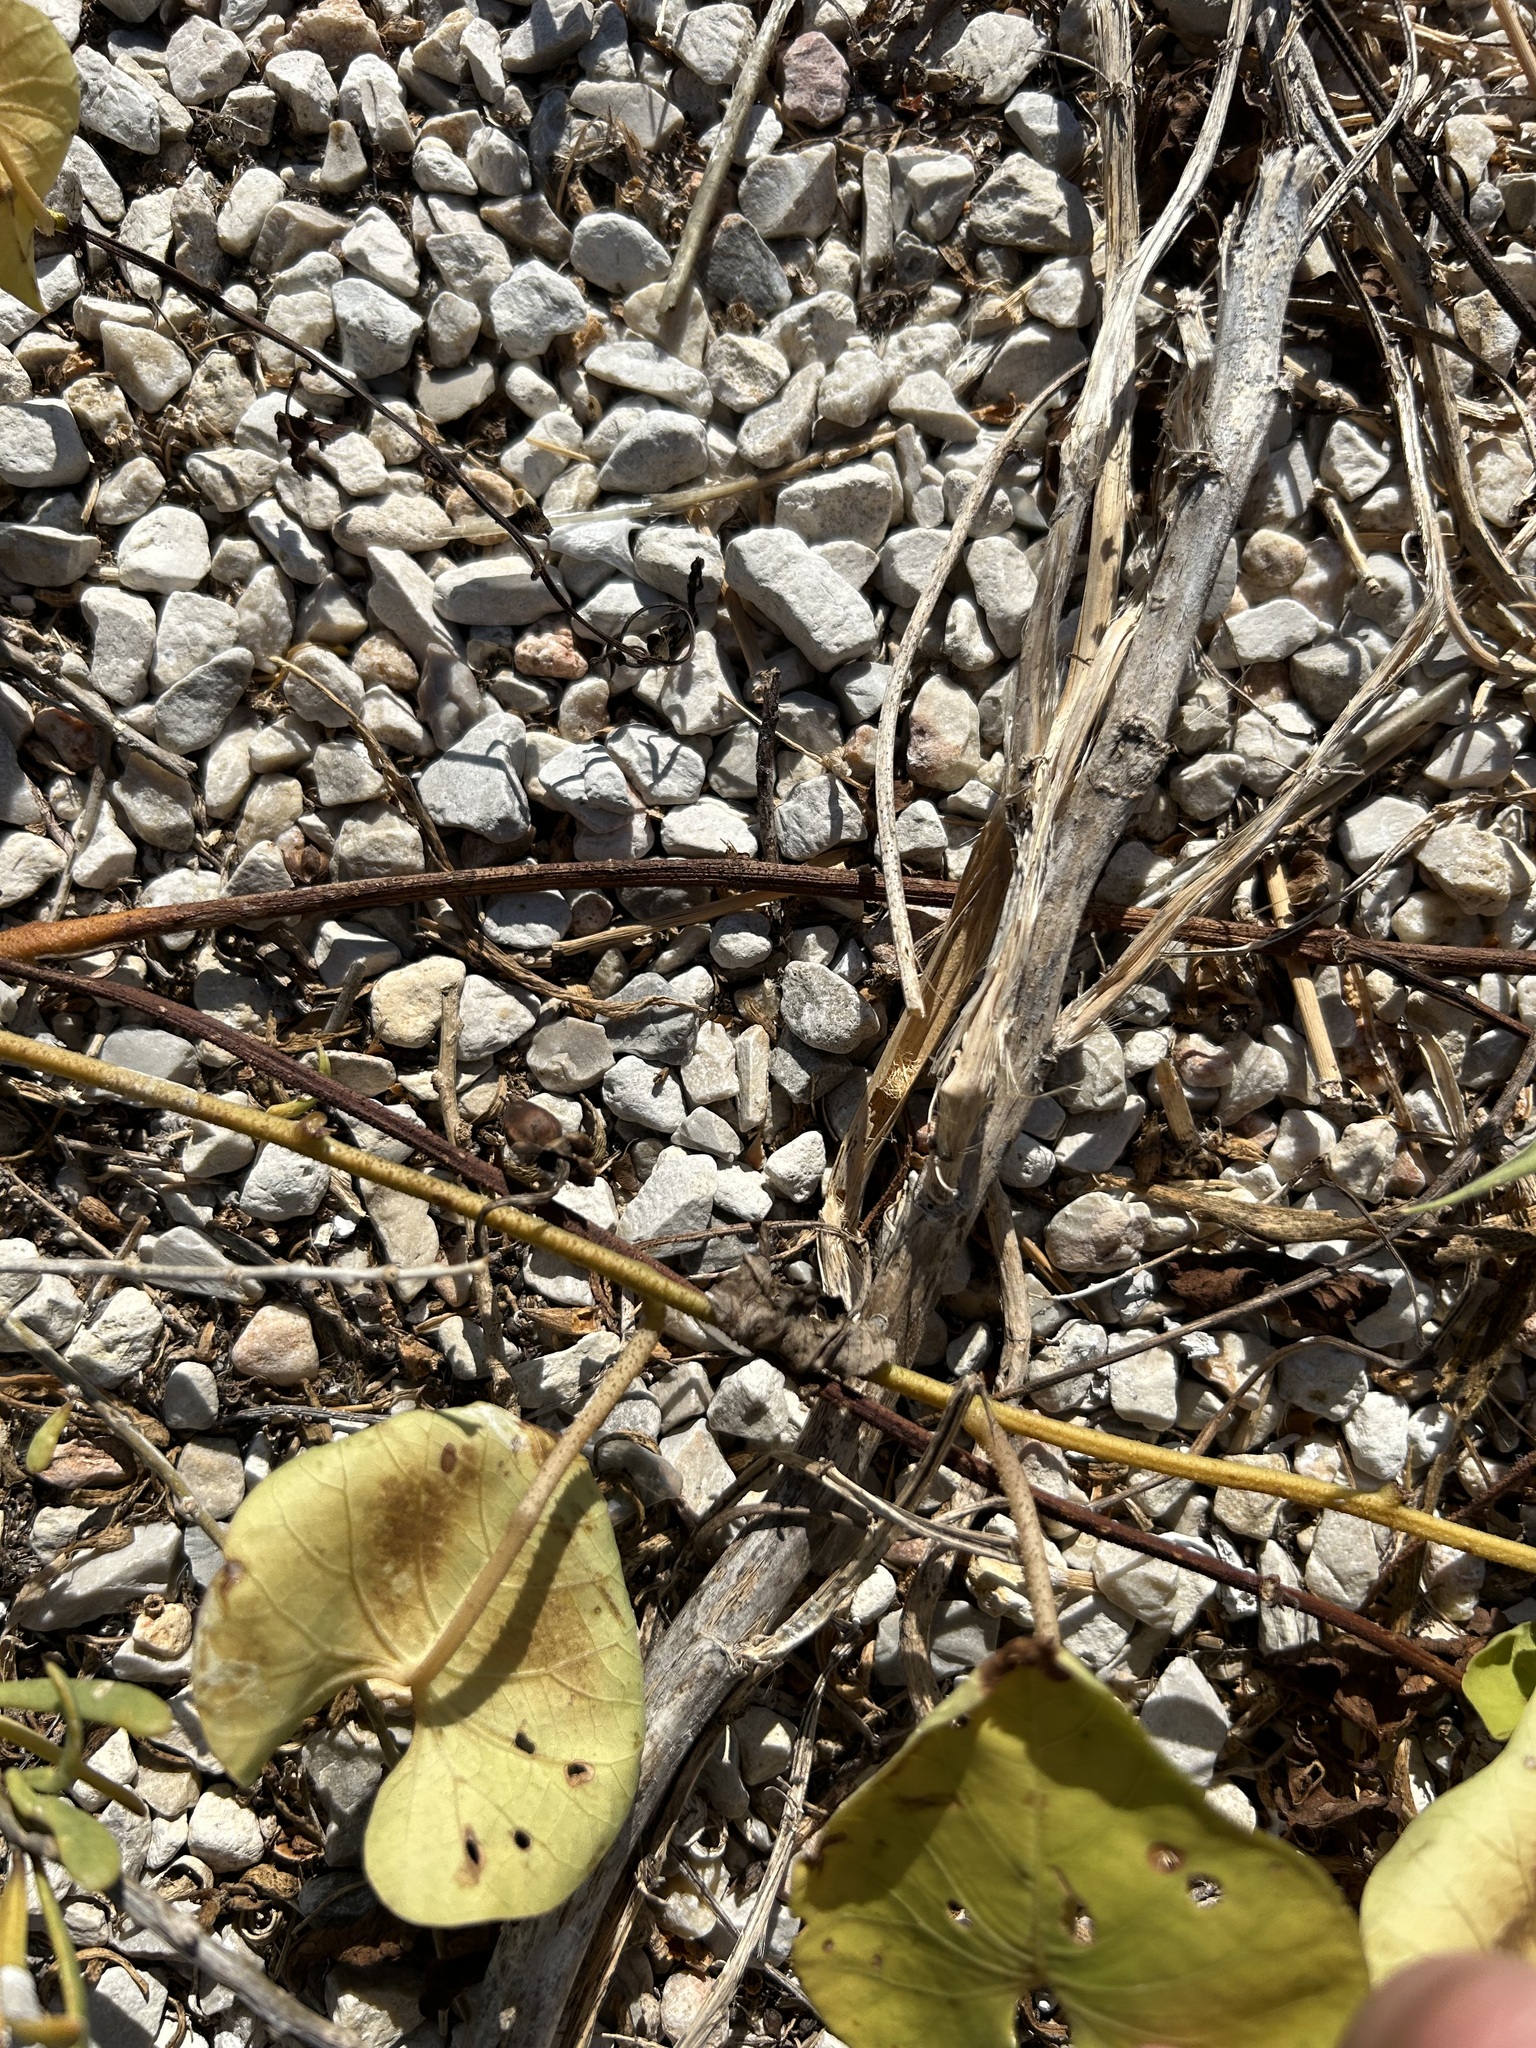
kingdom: Plantae
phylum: Tracheophyta
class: Magnoliopsida
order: Solanales
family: Convolvulaceae
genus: Ipomoea
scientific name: Ipomoea amnicola
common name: Redcenter morning-glory
